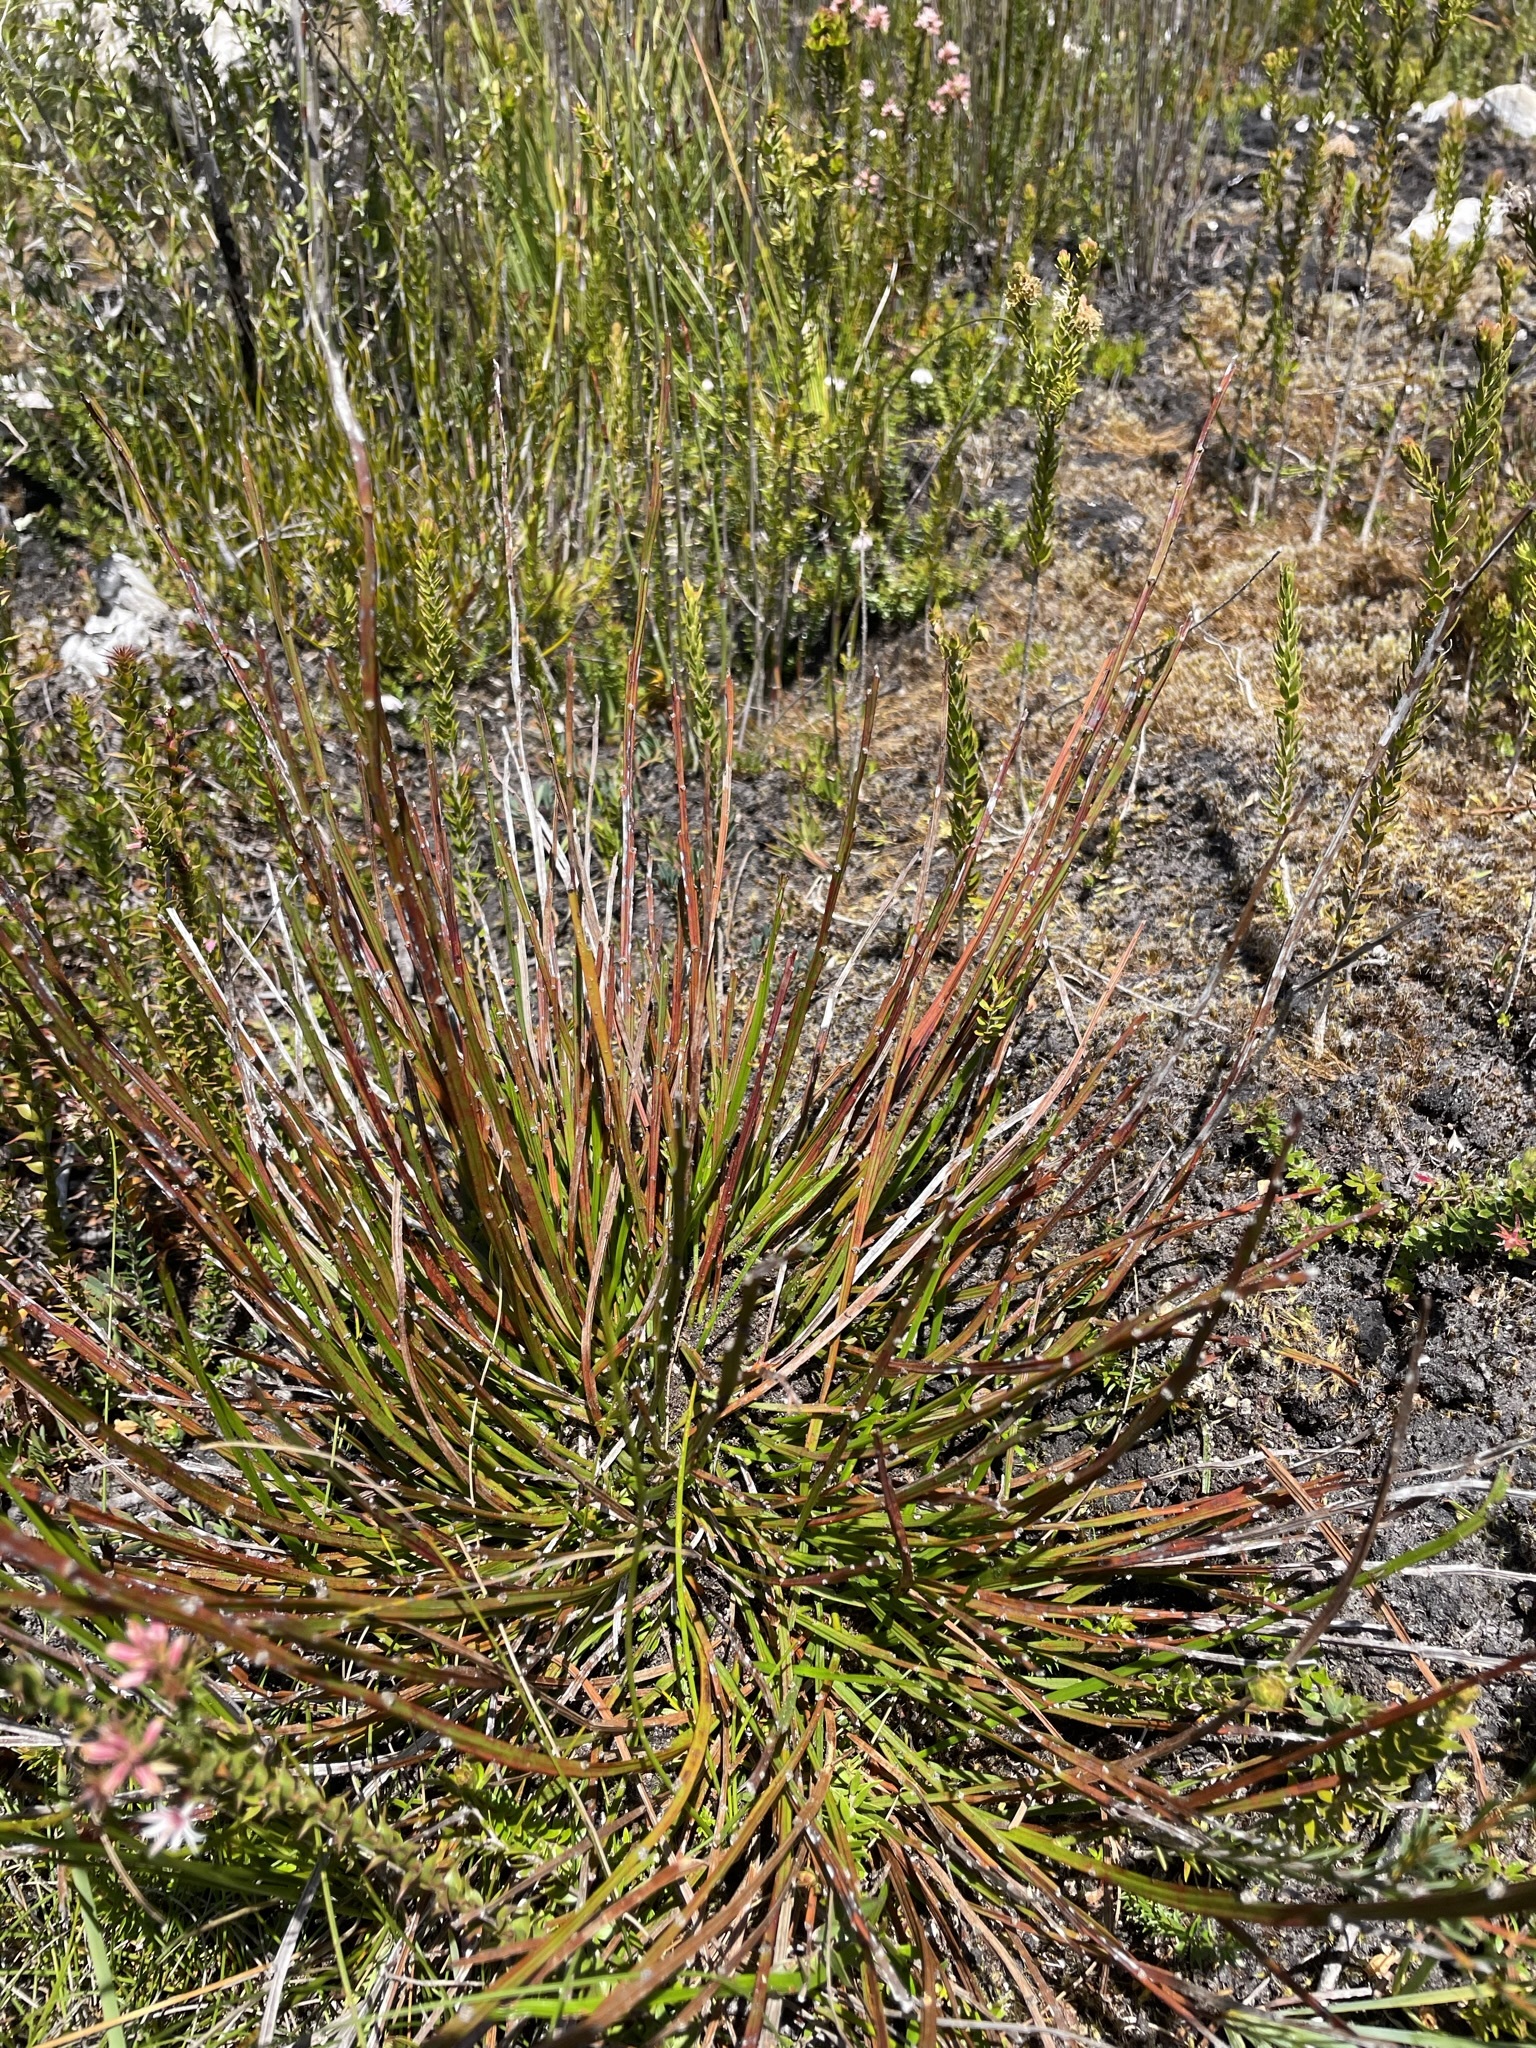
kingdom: Plantae
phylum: Tracheophyta
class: Magnoliopsida
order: Malpighiales
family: Euphorbiaceae
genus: Amperea
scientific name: Amperea xiphoclada
